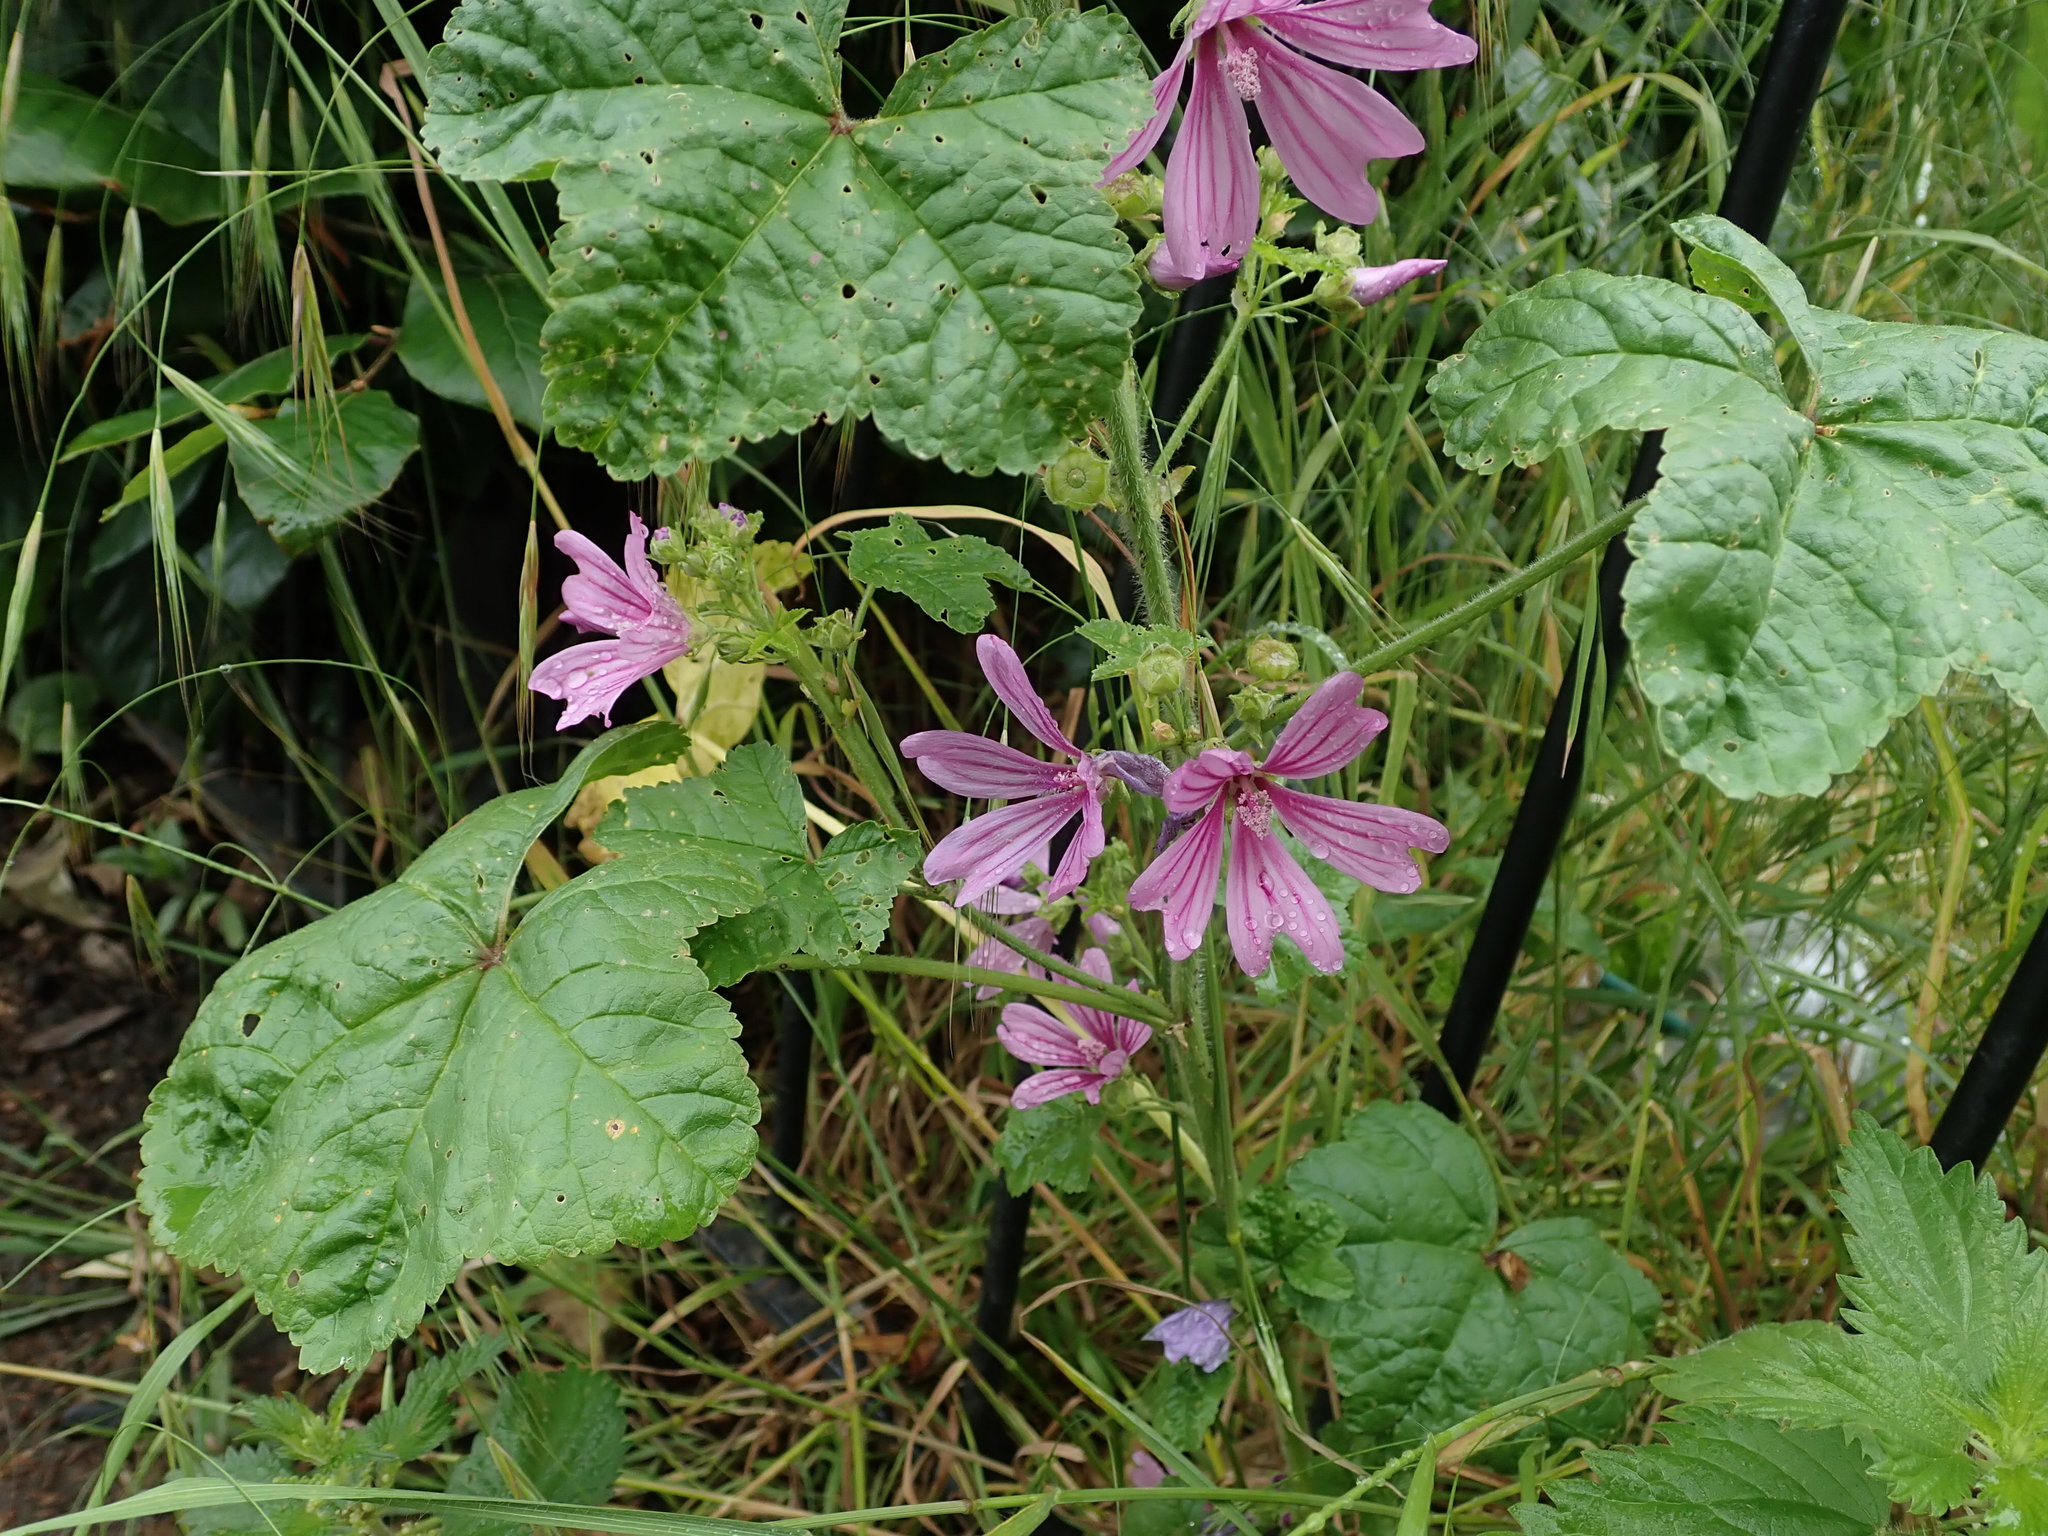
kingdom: Plantae
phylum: Tracheophyta
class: Magnoliopsida
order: Malvales
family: Malvaceae
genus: Malva
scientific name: Malva sylvestris
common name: Common mallow
